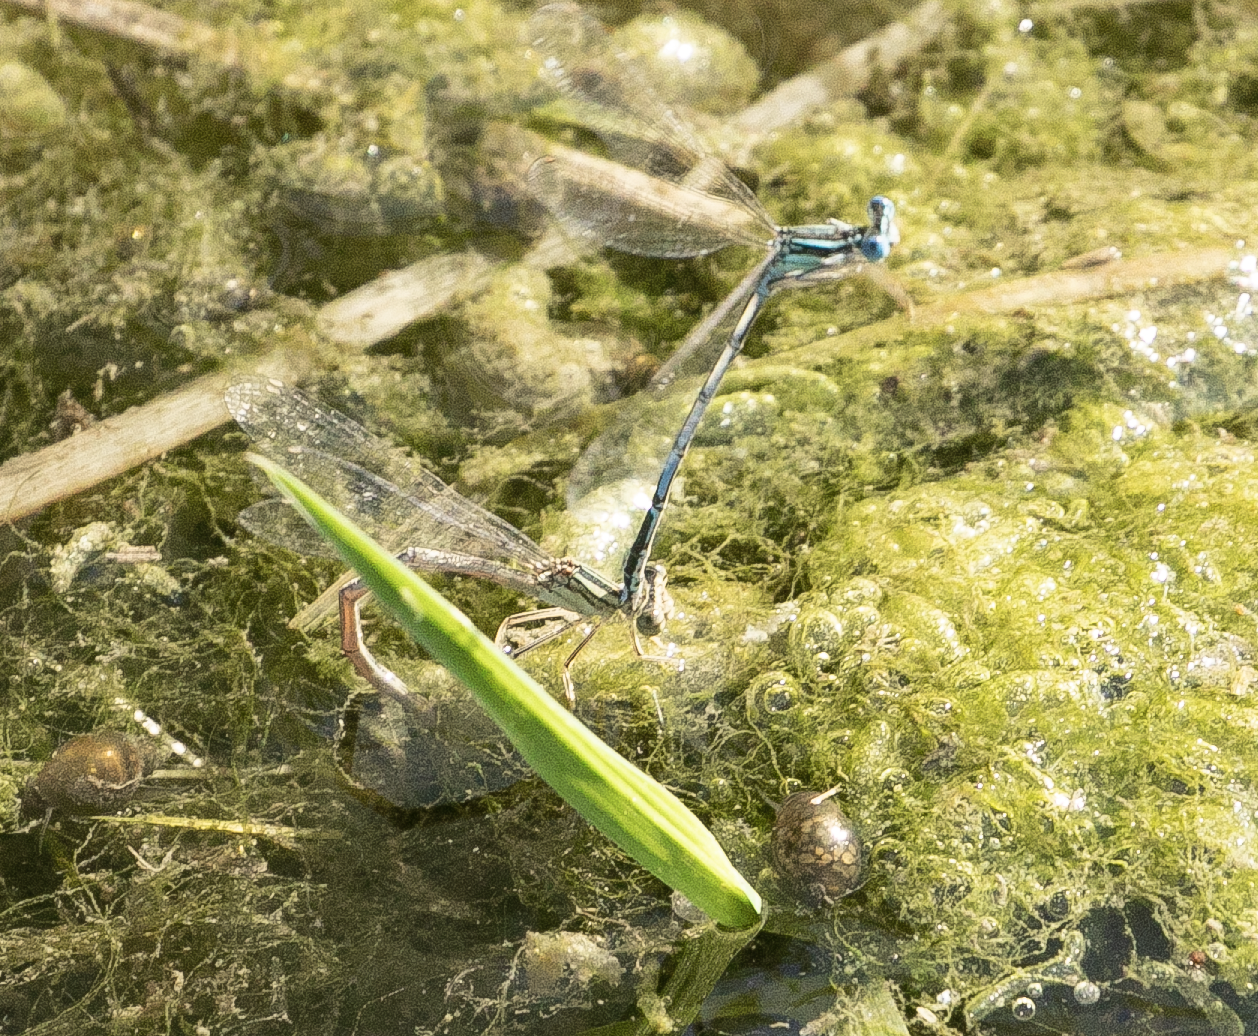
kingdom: Animalia
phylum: Arthropoda
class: Insecta
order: Odonata
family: Platycnemididae
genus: Platycnemis
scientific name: Platycnemis pennipes
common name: White-legged damselfly
